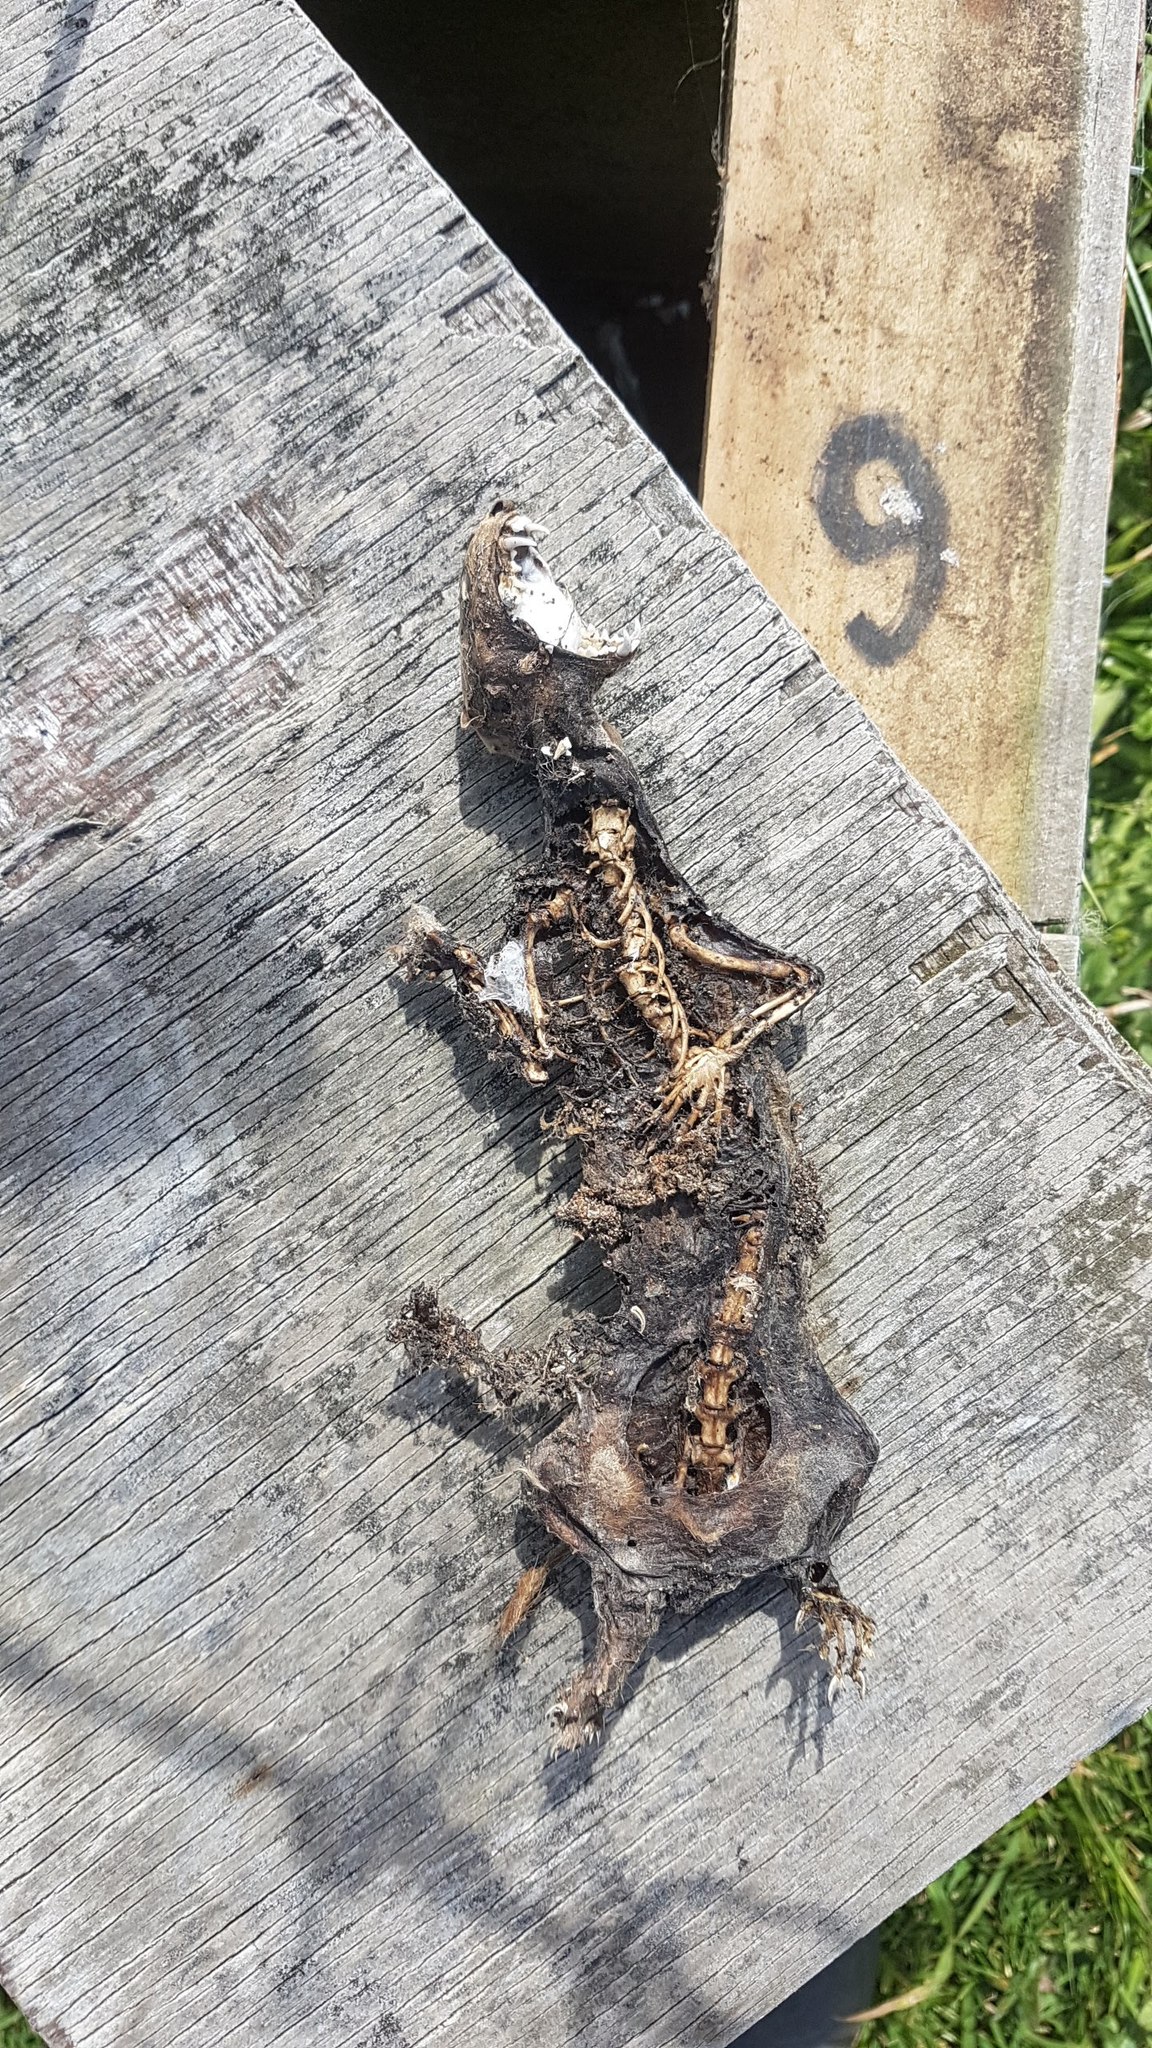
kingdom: Animalia
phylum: Chordata
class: Mammalia
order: Carnivora
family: Mustelidae
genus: Mustela
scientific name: Mustela erminea
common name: Stoat
